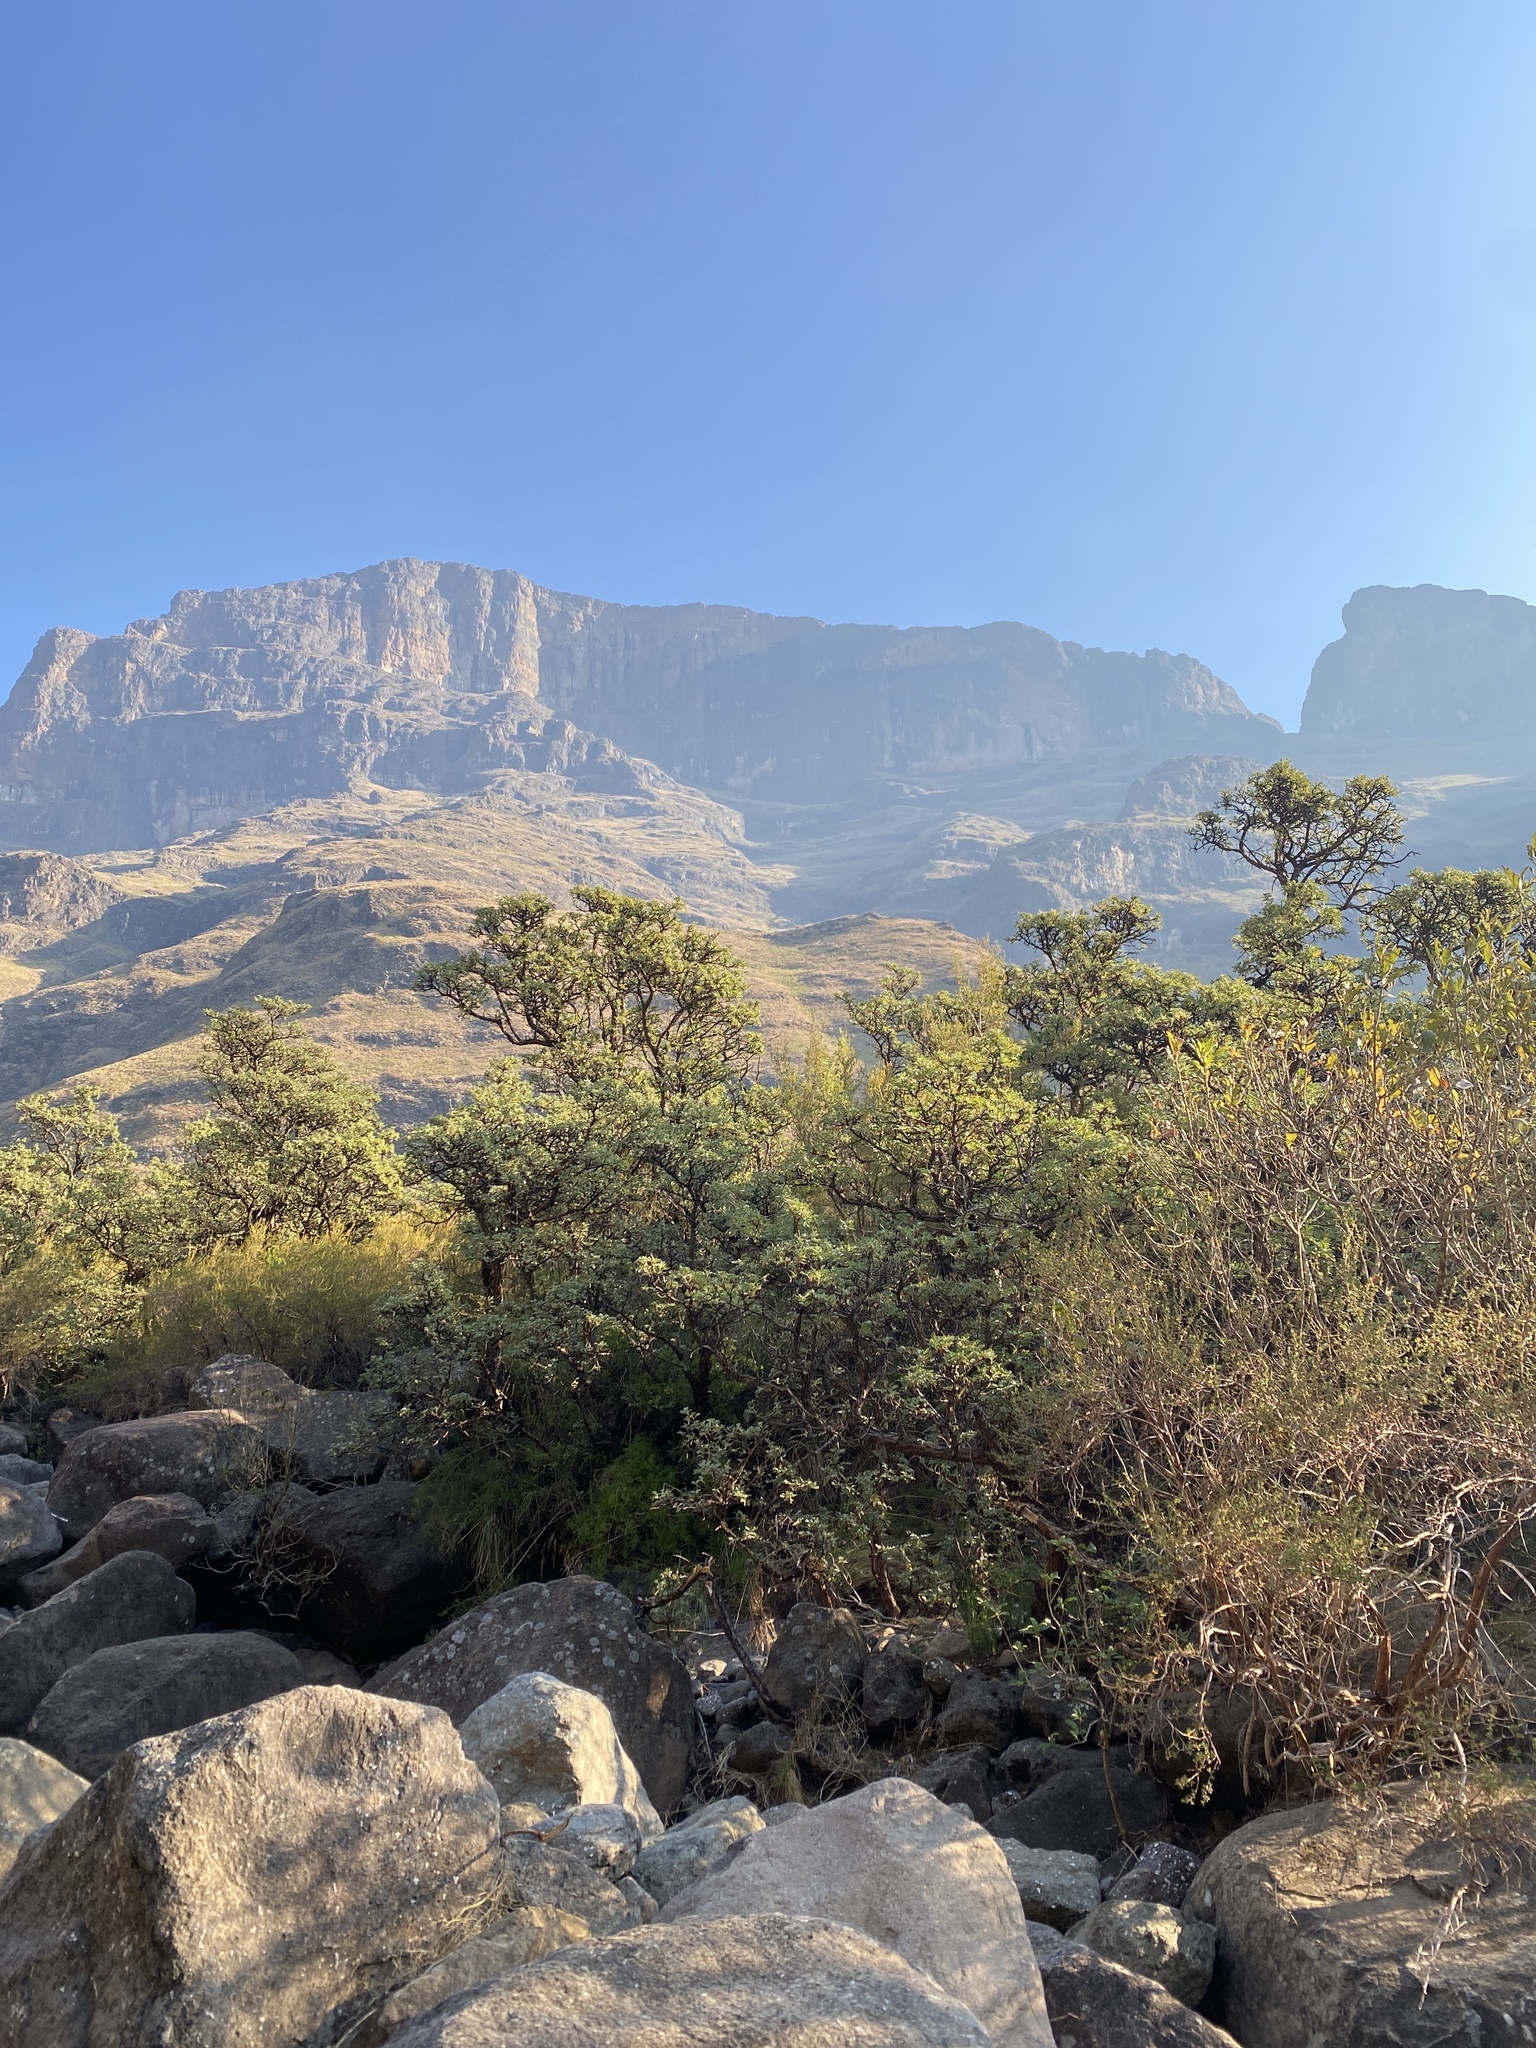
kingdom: Plantae
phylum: Tracheophyta
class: Magnoliopsida
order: Rosales
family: Rosaceae
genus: Leucosidea
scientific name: Leucosidea sericea
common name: Oldwood
